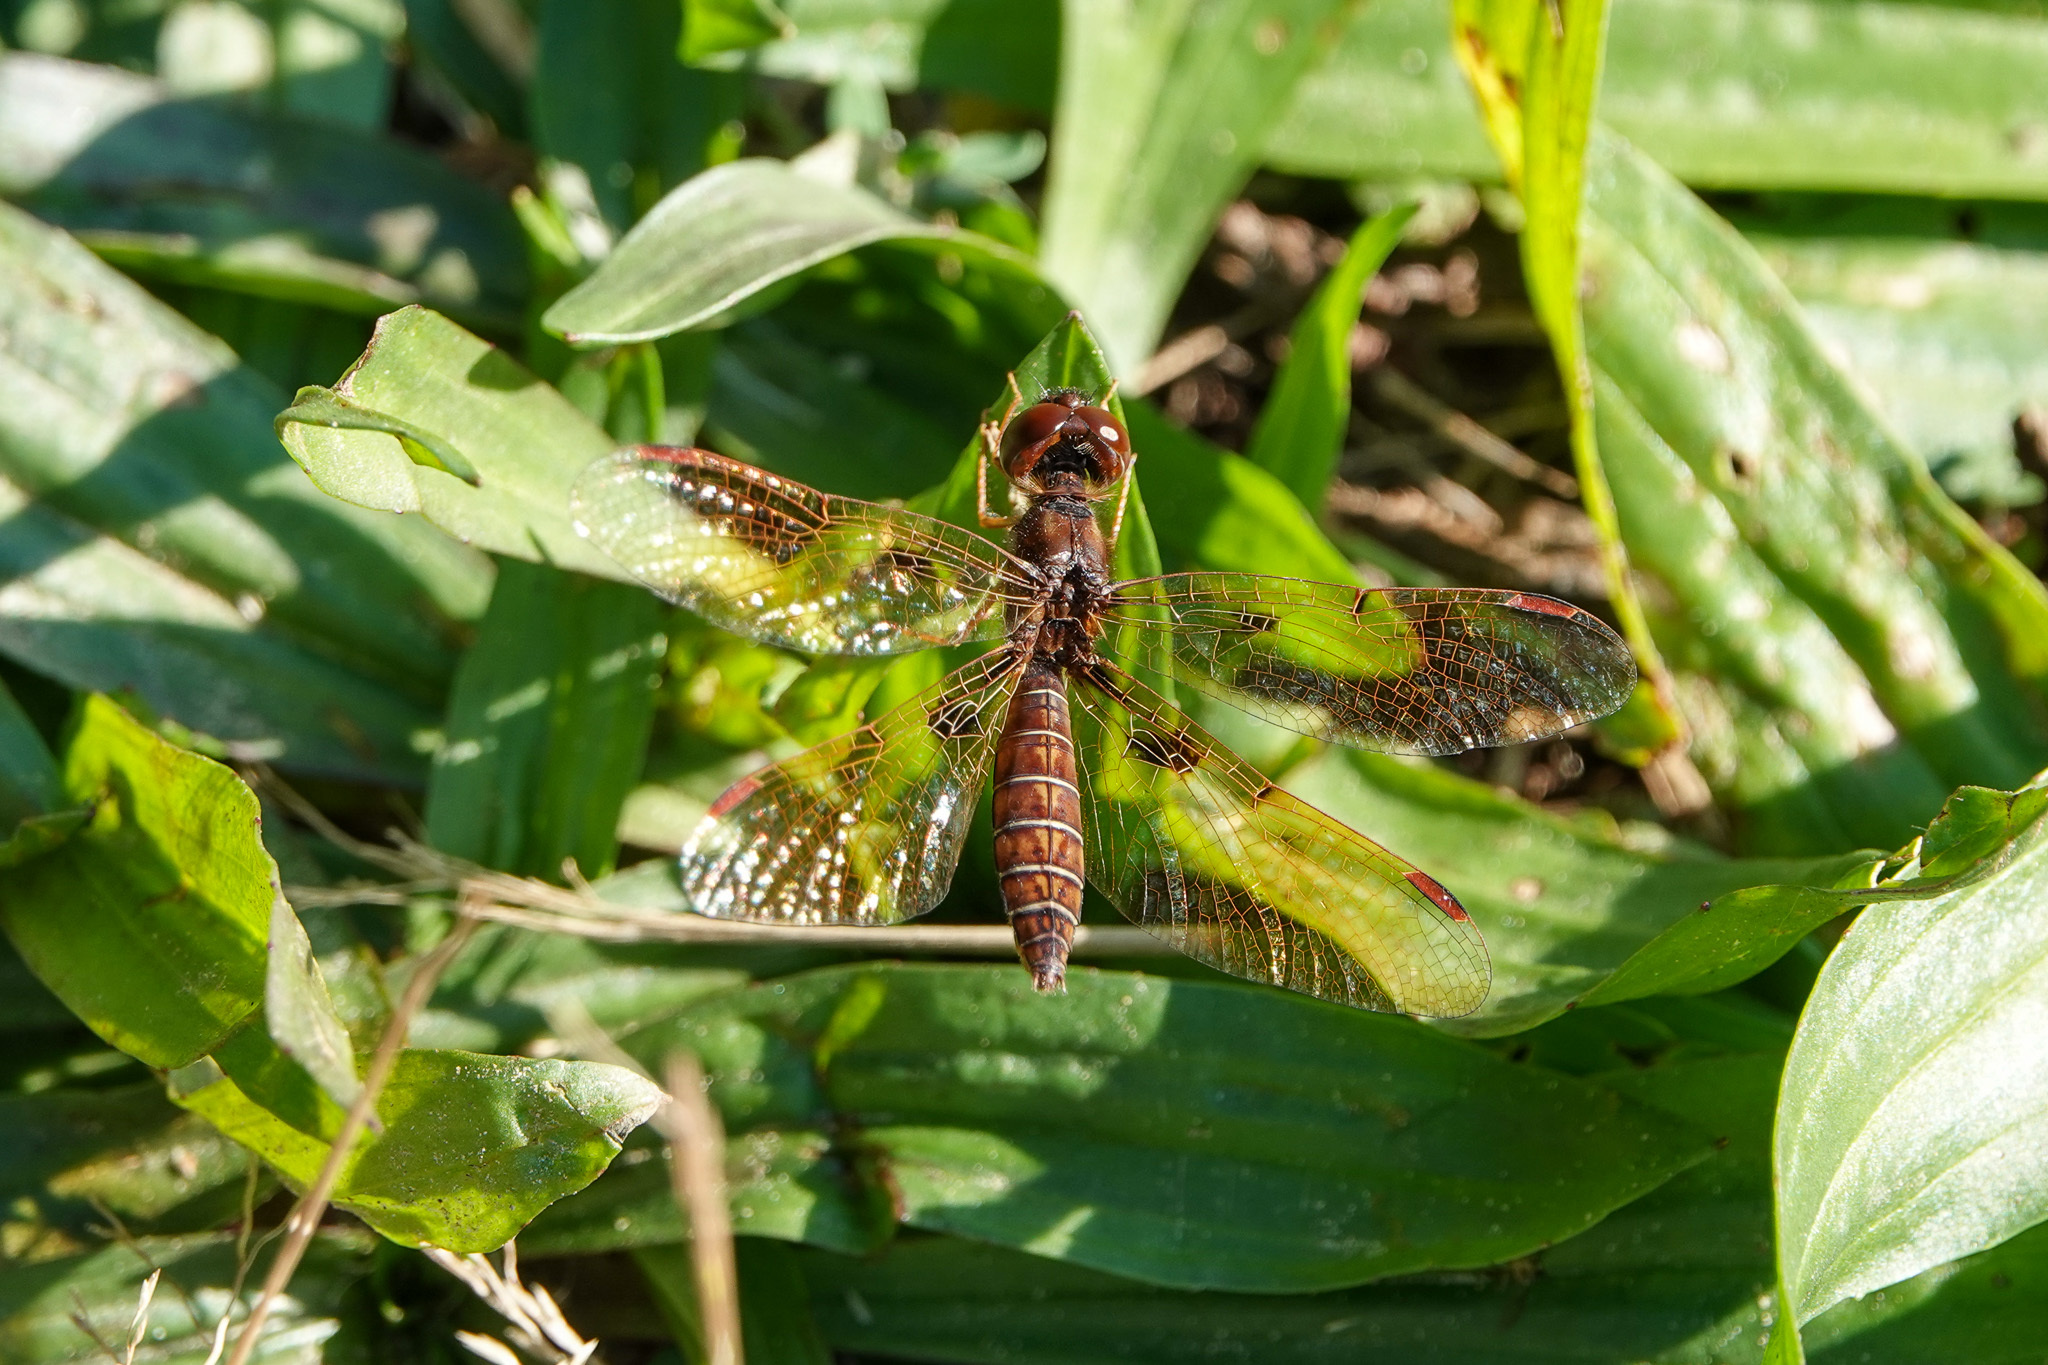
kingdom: Animalia
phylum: Arthropoda
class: Insecta
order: Odonata
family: Libellulidae
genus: Perithemis
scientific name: Perithemis tenera
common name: Eastern amberwing
